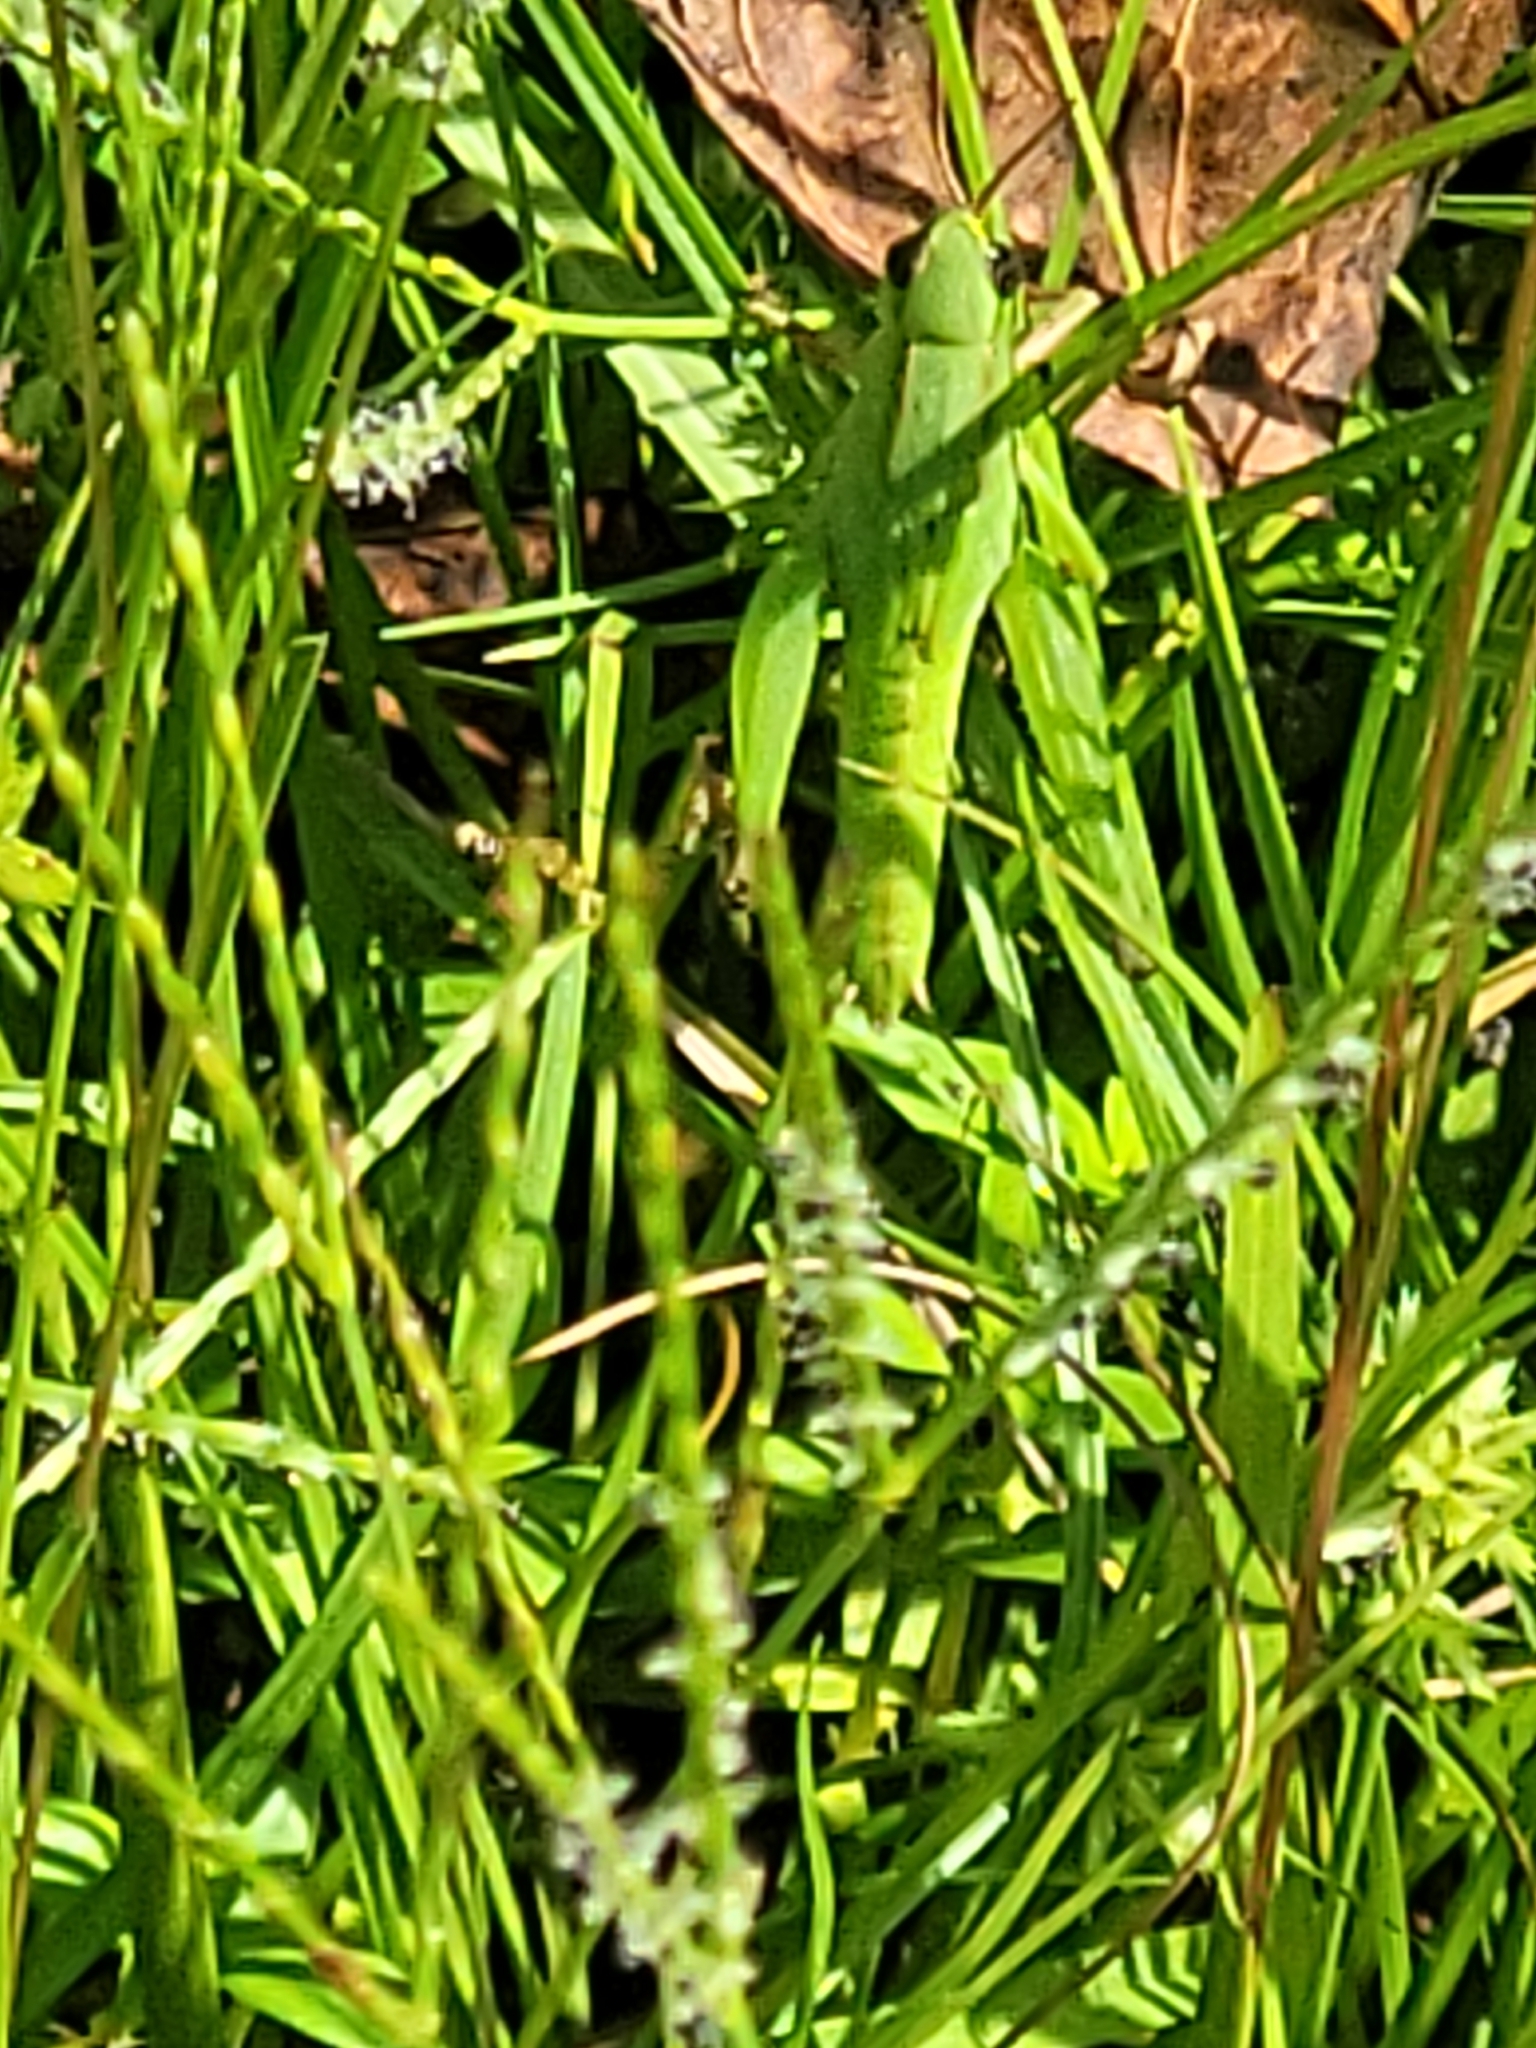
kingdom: Animalia
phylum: Arthropoda
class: Insecta
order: Orthoptera
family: Acrididae
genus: Dichromorpha
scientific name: Dichromorpha viridis
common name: Short-winged green grasshopper
